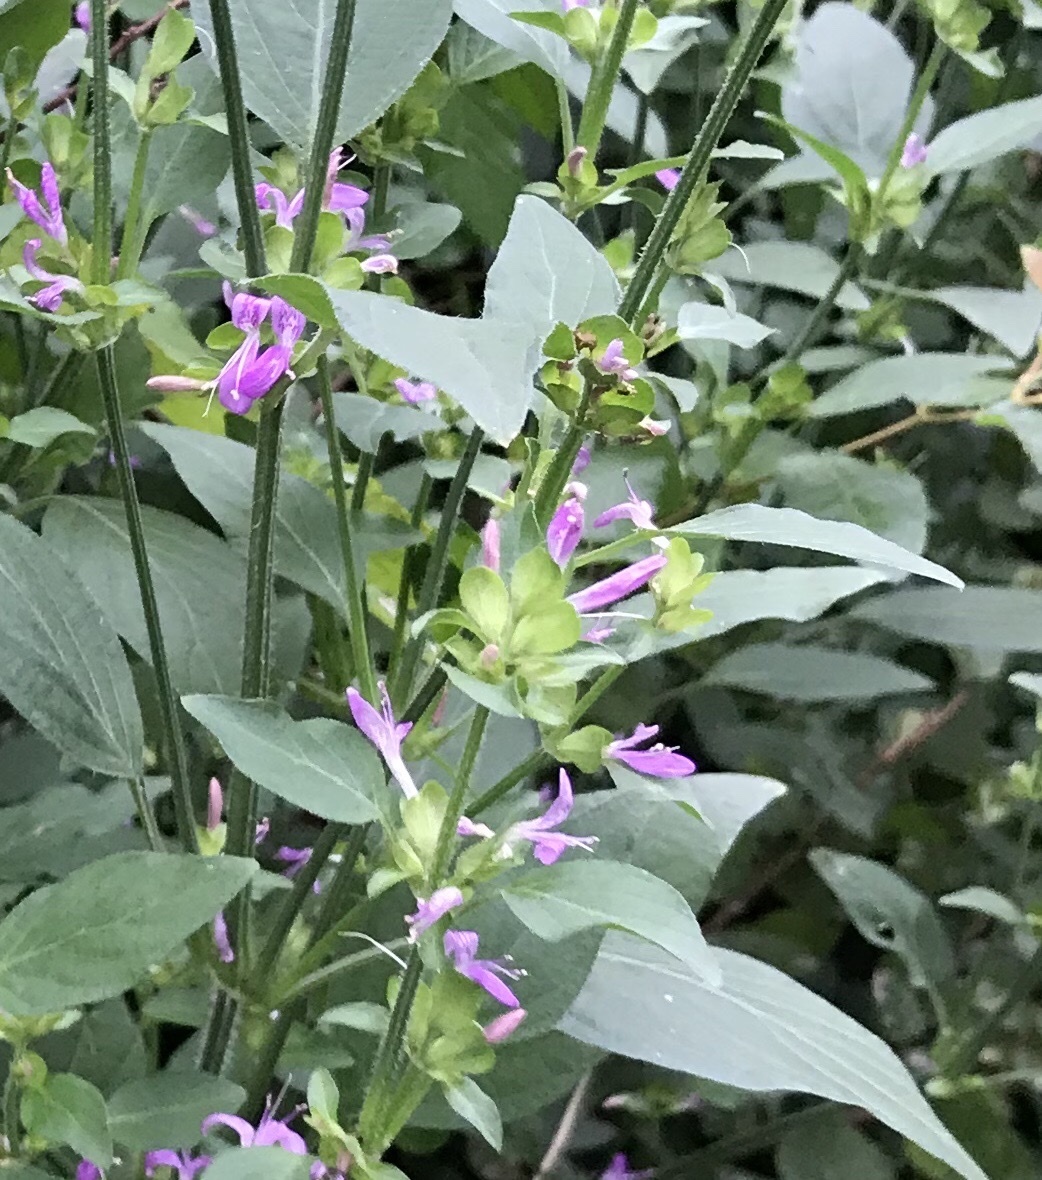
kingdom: Plantae
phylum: Tracheophyta
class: Magnoliopsida
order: Lamiales
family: Acanthaceae
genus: Dicliptera
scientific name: Dicliptera brachiata
